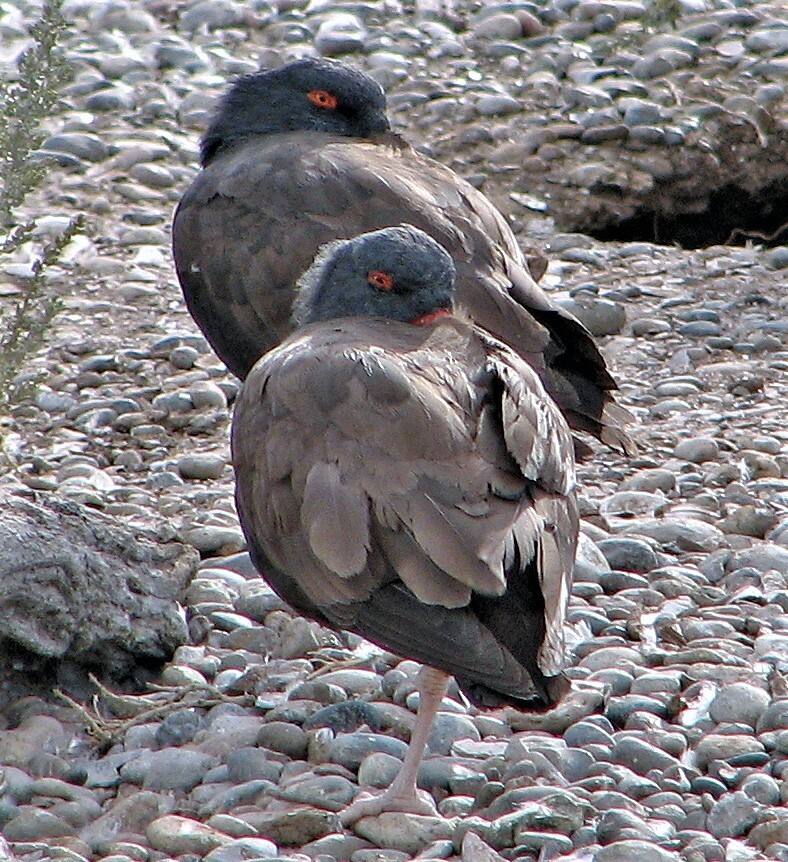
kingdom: Animalia
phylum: Chordata
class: Aves
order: Charadriiformes
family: Haematopodidae
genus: Haematopus
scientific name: Haematopus ater
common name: Blackish oystercatcher
